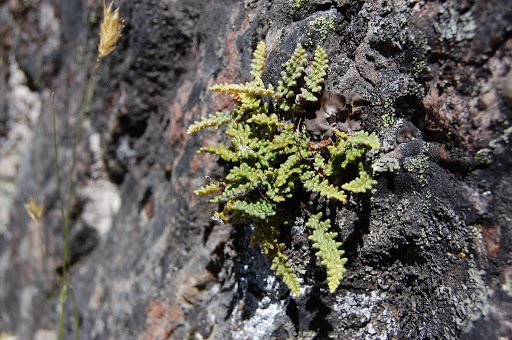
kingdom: Plantae
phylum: Tracheophyta
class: Polypodiopsida
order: Polypodiales
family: Pteridaceae
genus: Myriopteris
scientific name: Myriopteris gracillima
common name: Lace fern
